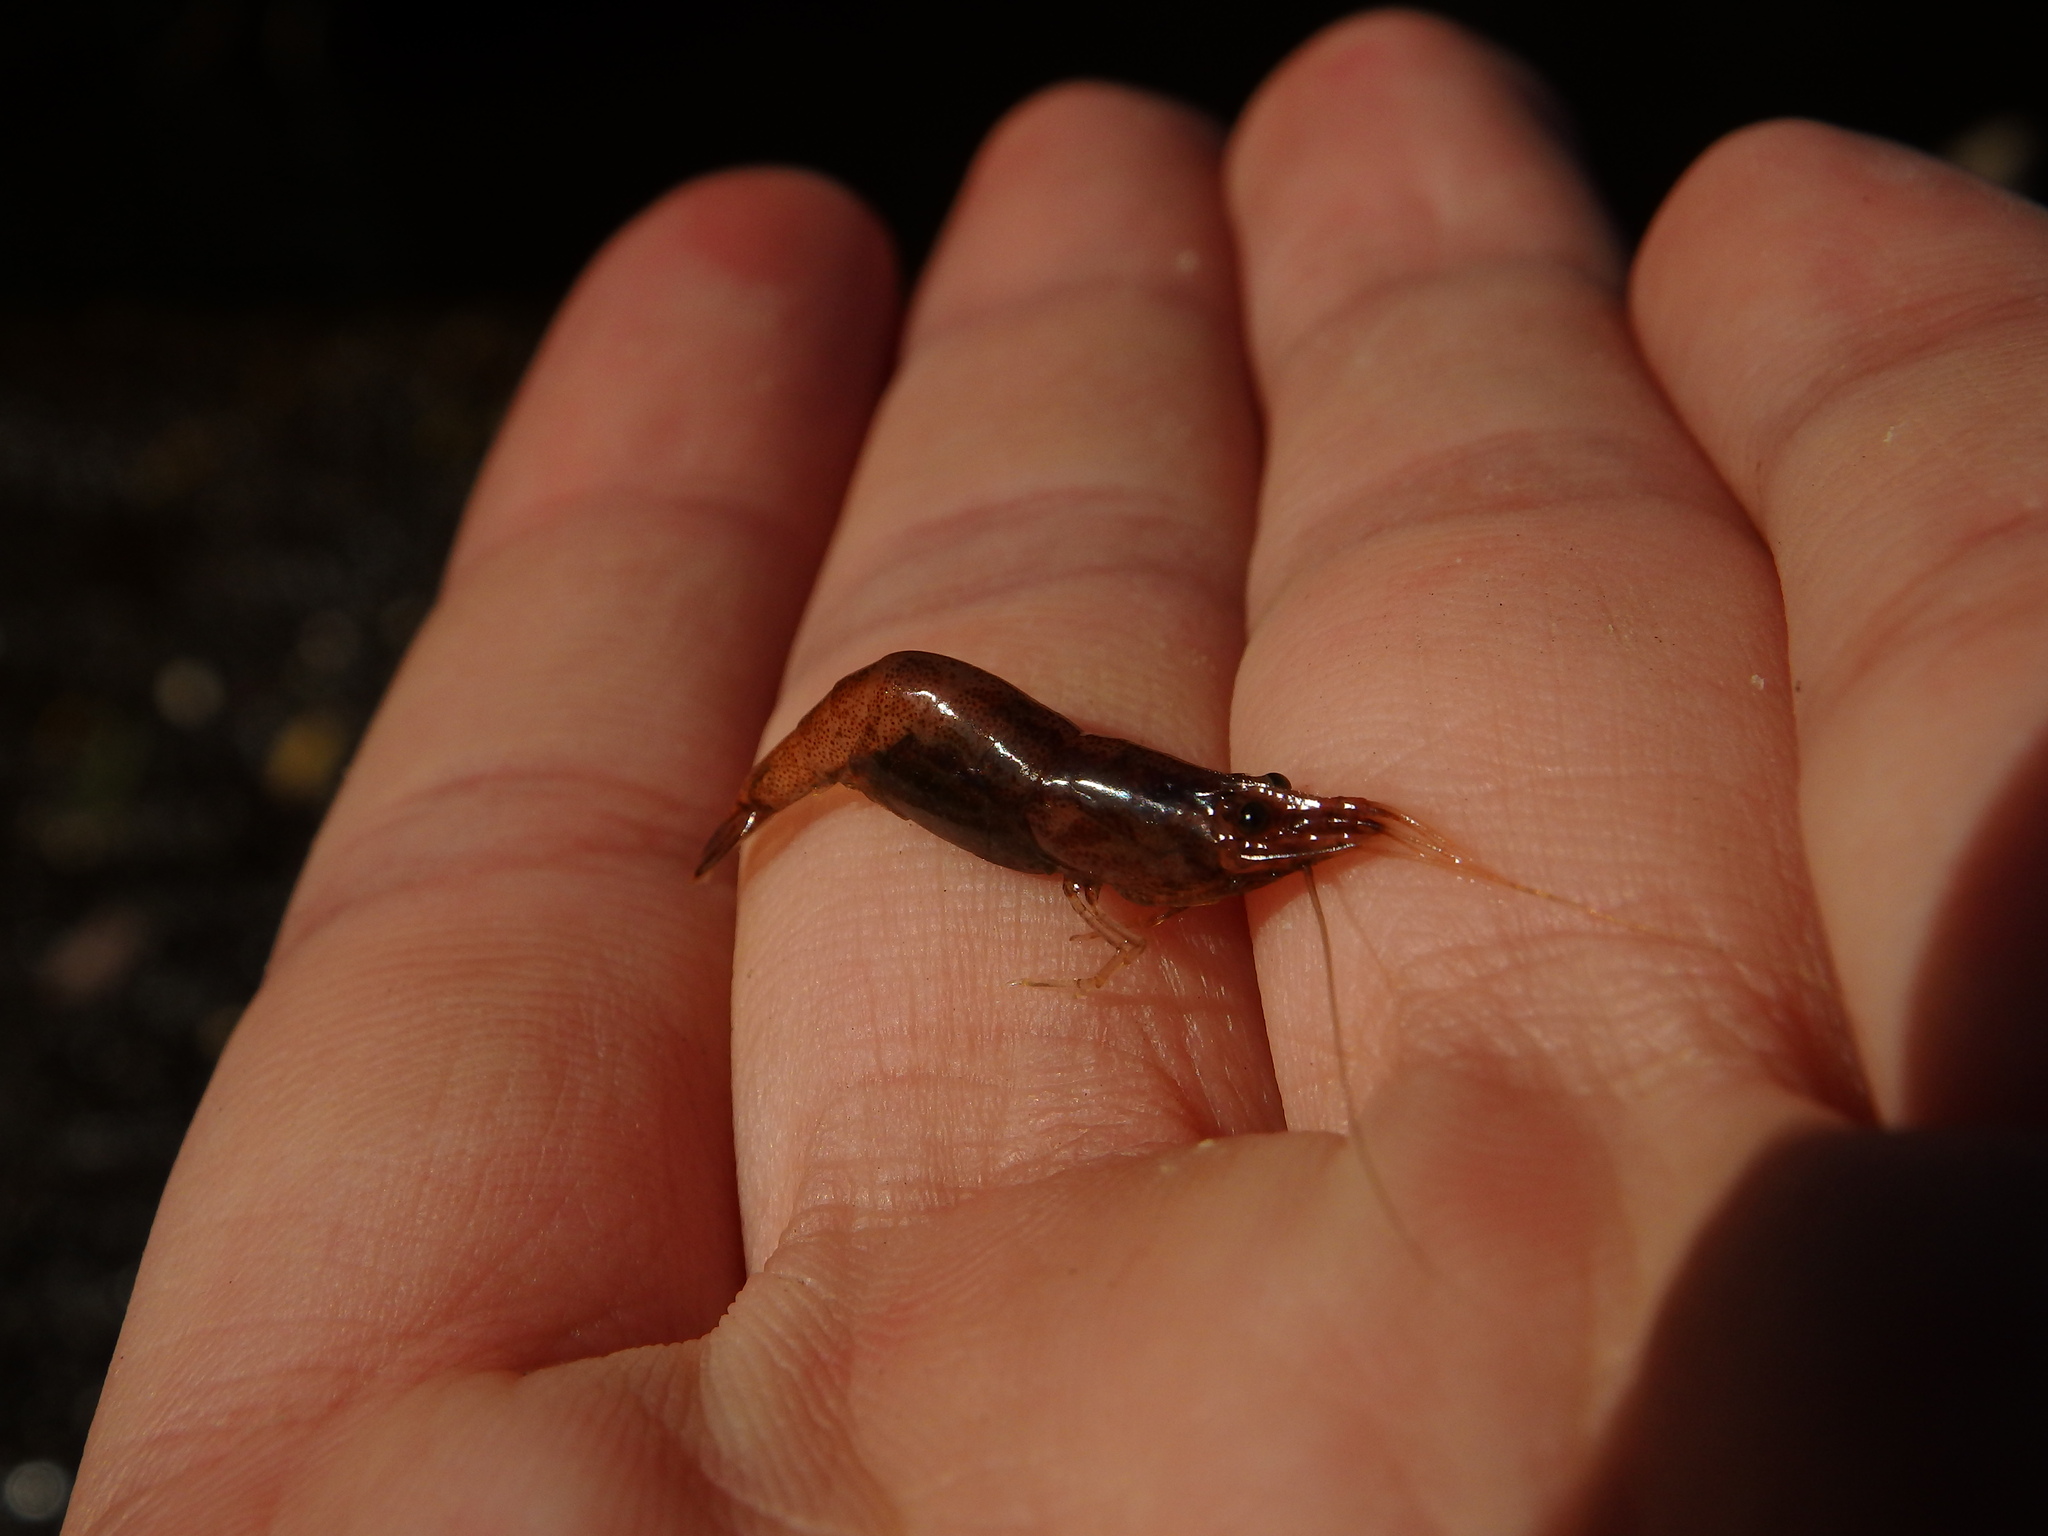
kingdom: Animalia
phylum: Arthropoda
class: Malacostraca
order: Decapoda
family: Atyidae
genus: Atyaephyra
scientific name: Atyaephyra desmarestii
